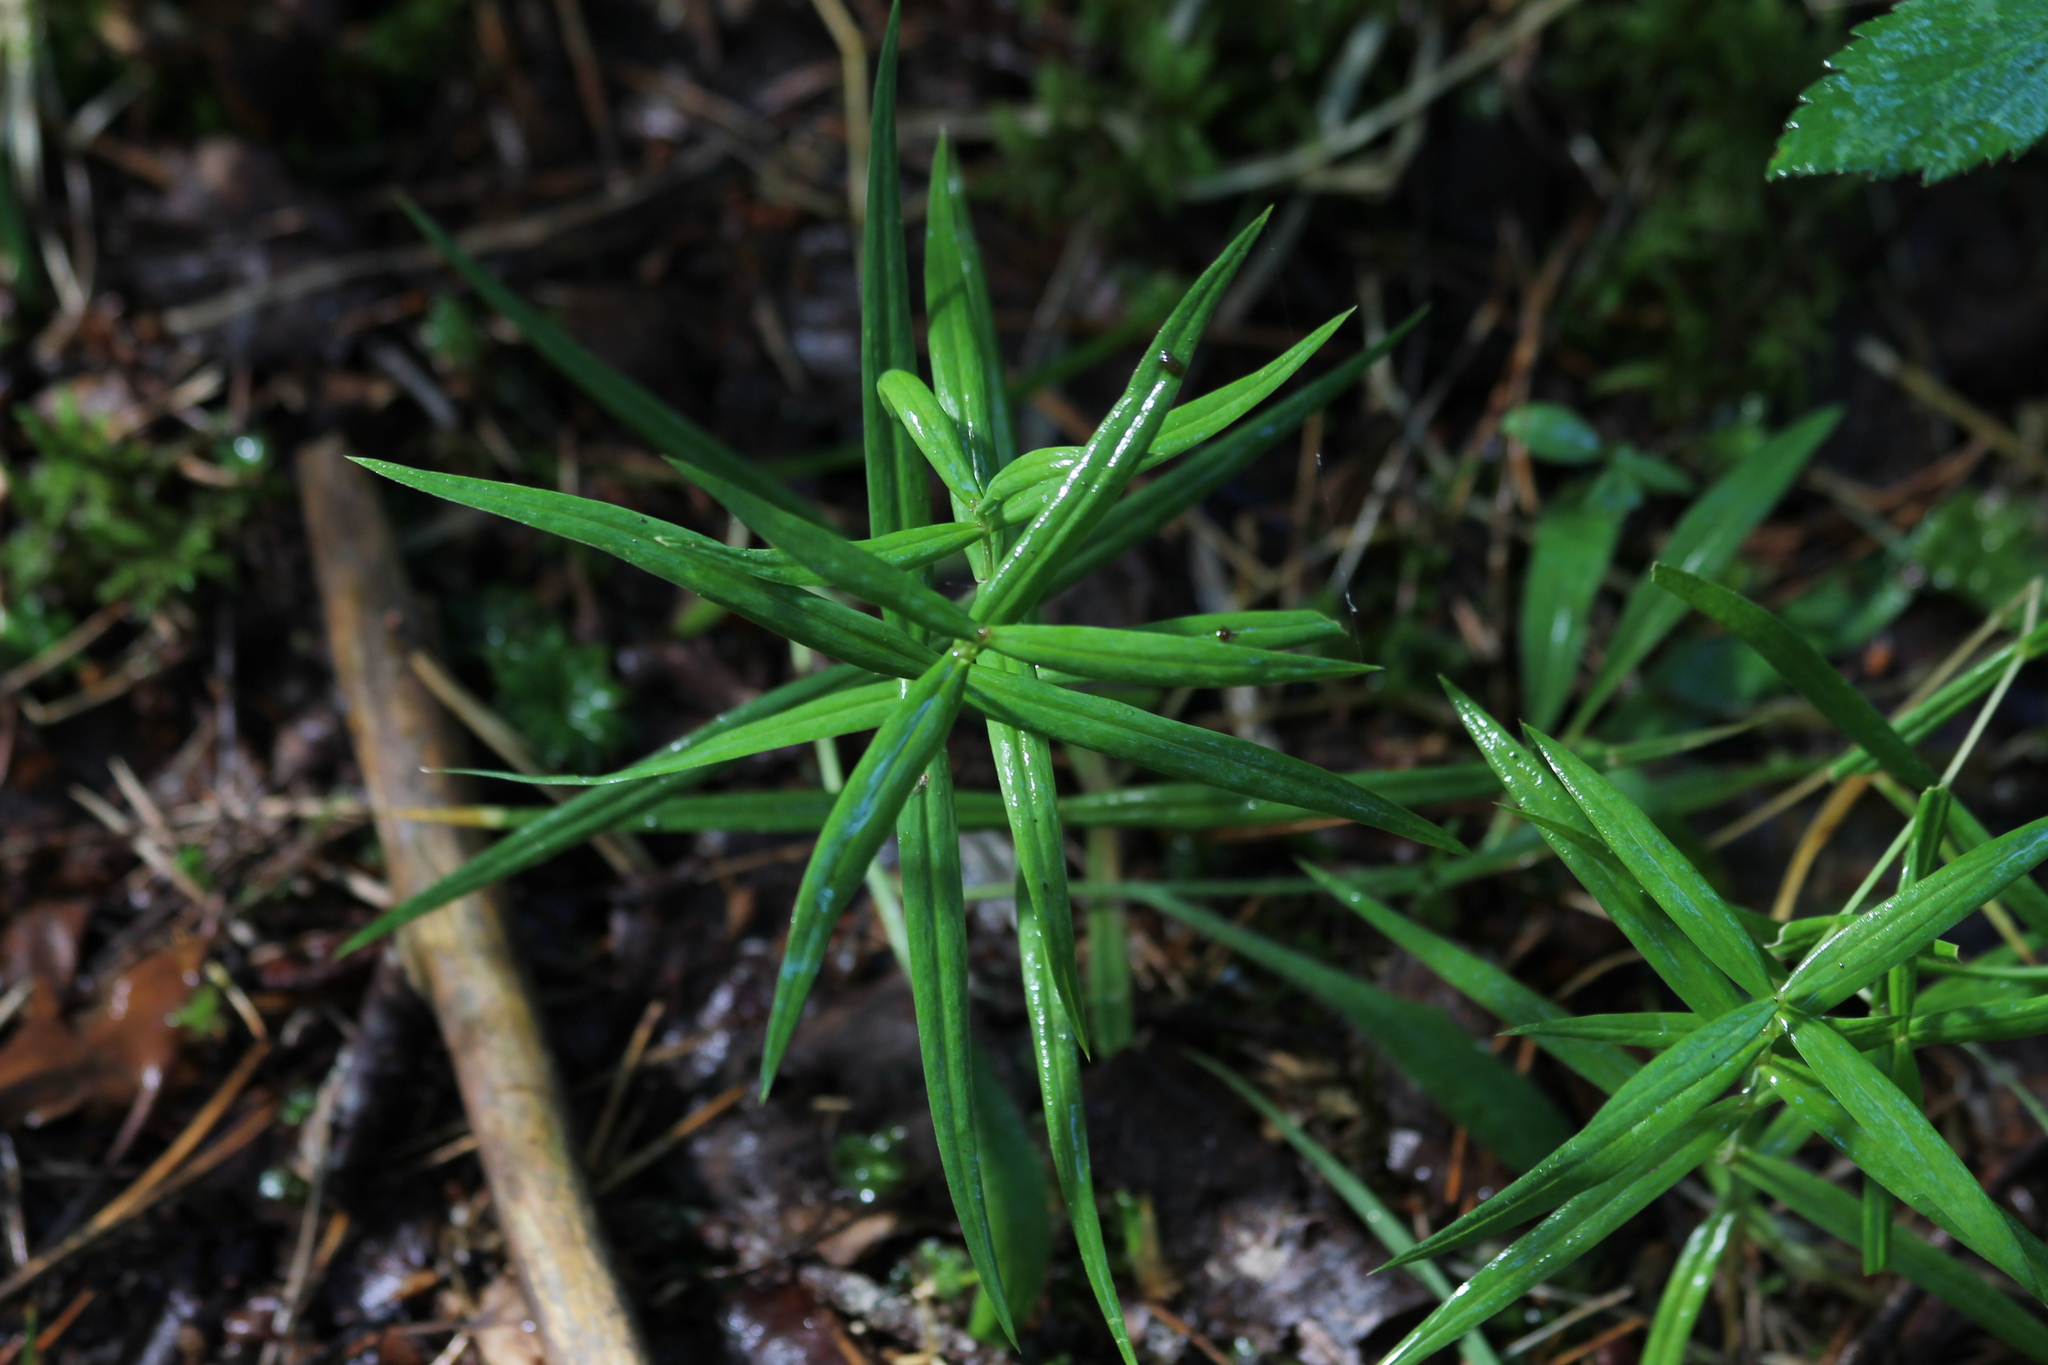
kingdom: Plantae
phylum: Tracheophyta
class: Magnoliopsida
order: Caryophyllales
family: Caryophyllaceae
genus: Rabelera
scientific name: Rabelera holostea
